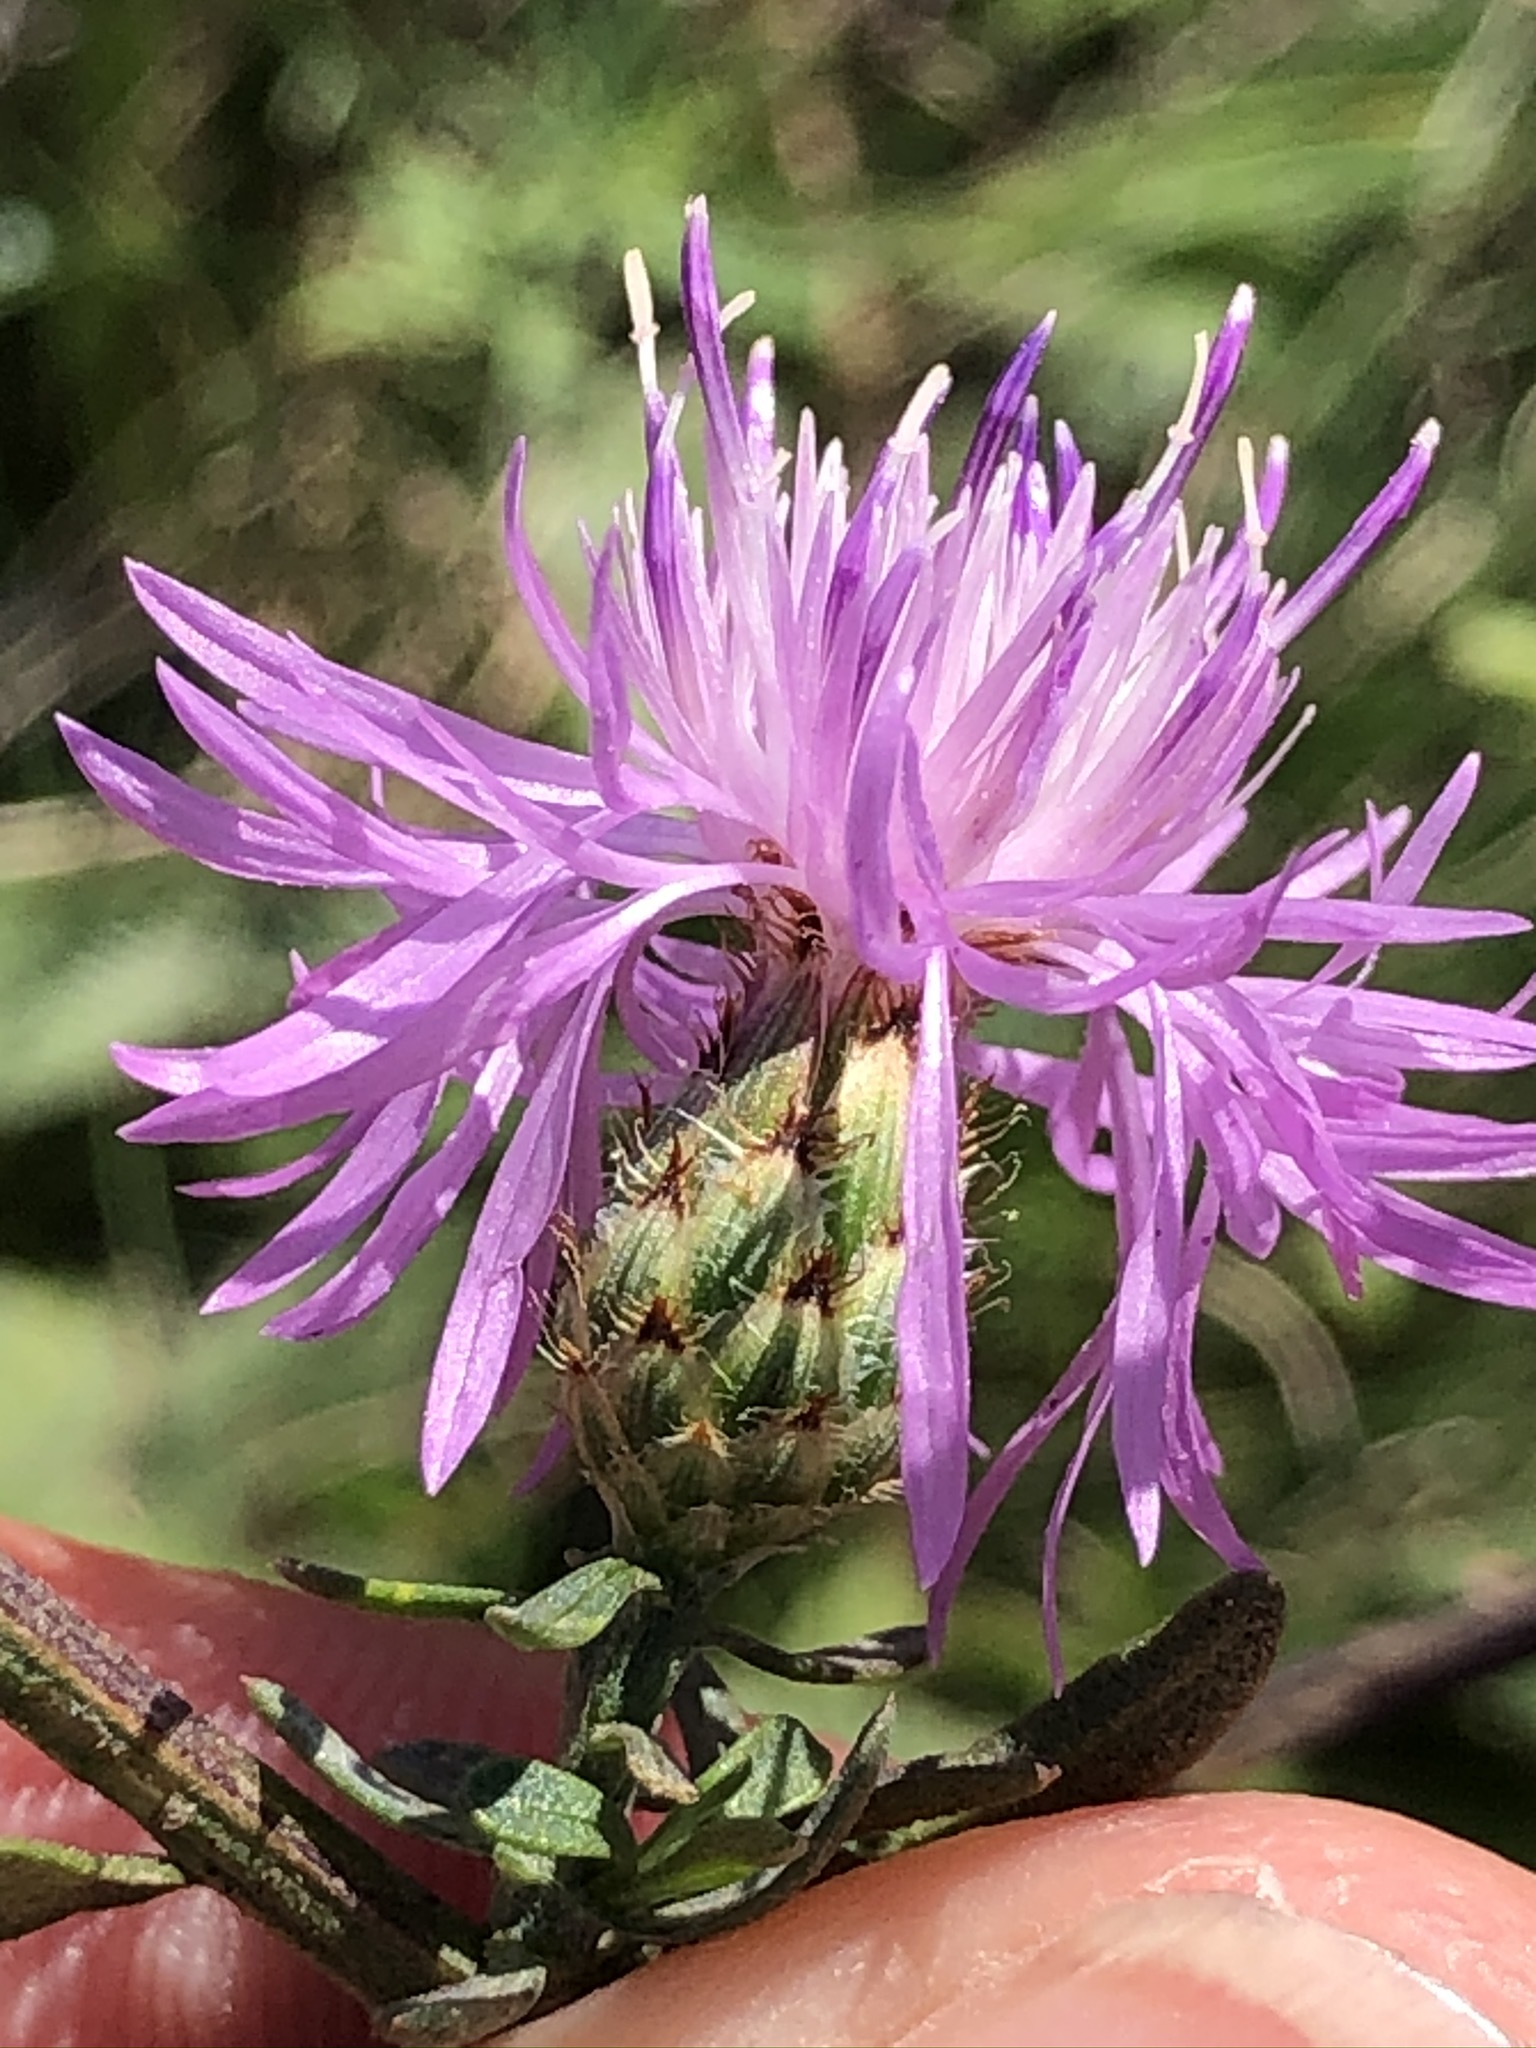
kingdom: Plantae
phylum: Tracheophyta
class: Magnoliopsida
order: Asterales
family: Asteraceae
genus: Centaurea
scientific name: Centaurea stoebe
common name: Spotted knapweed
